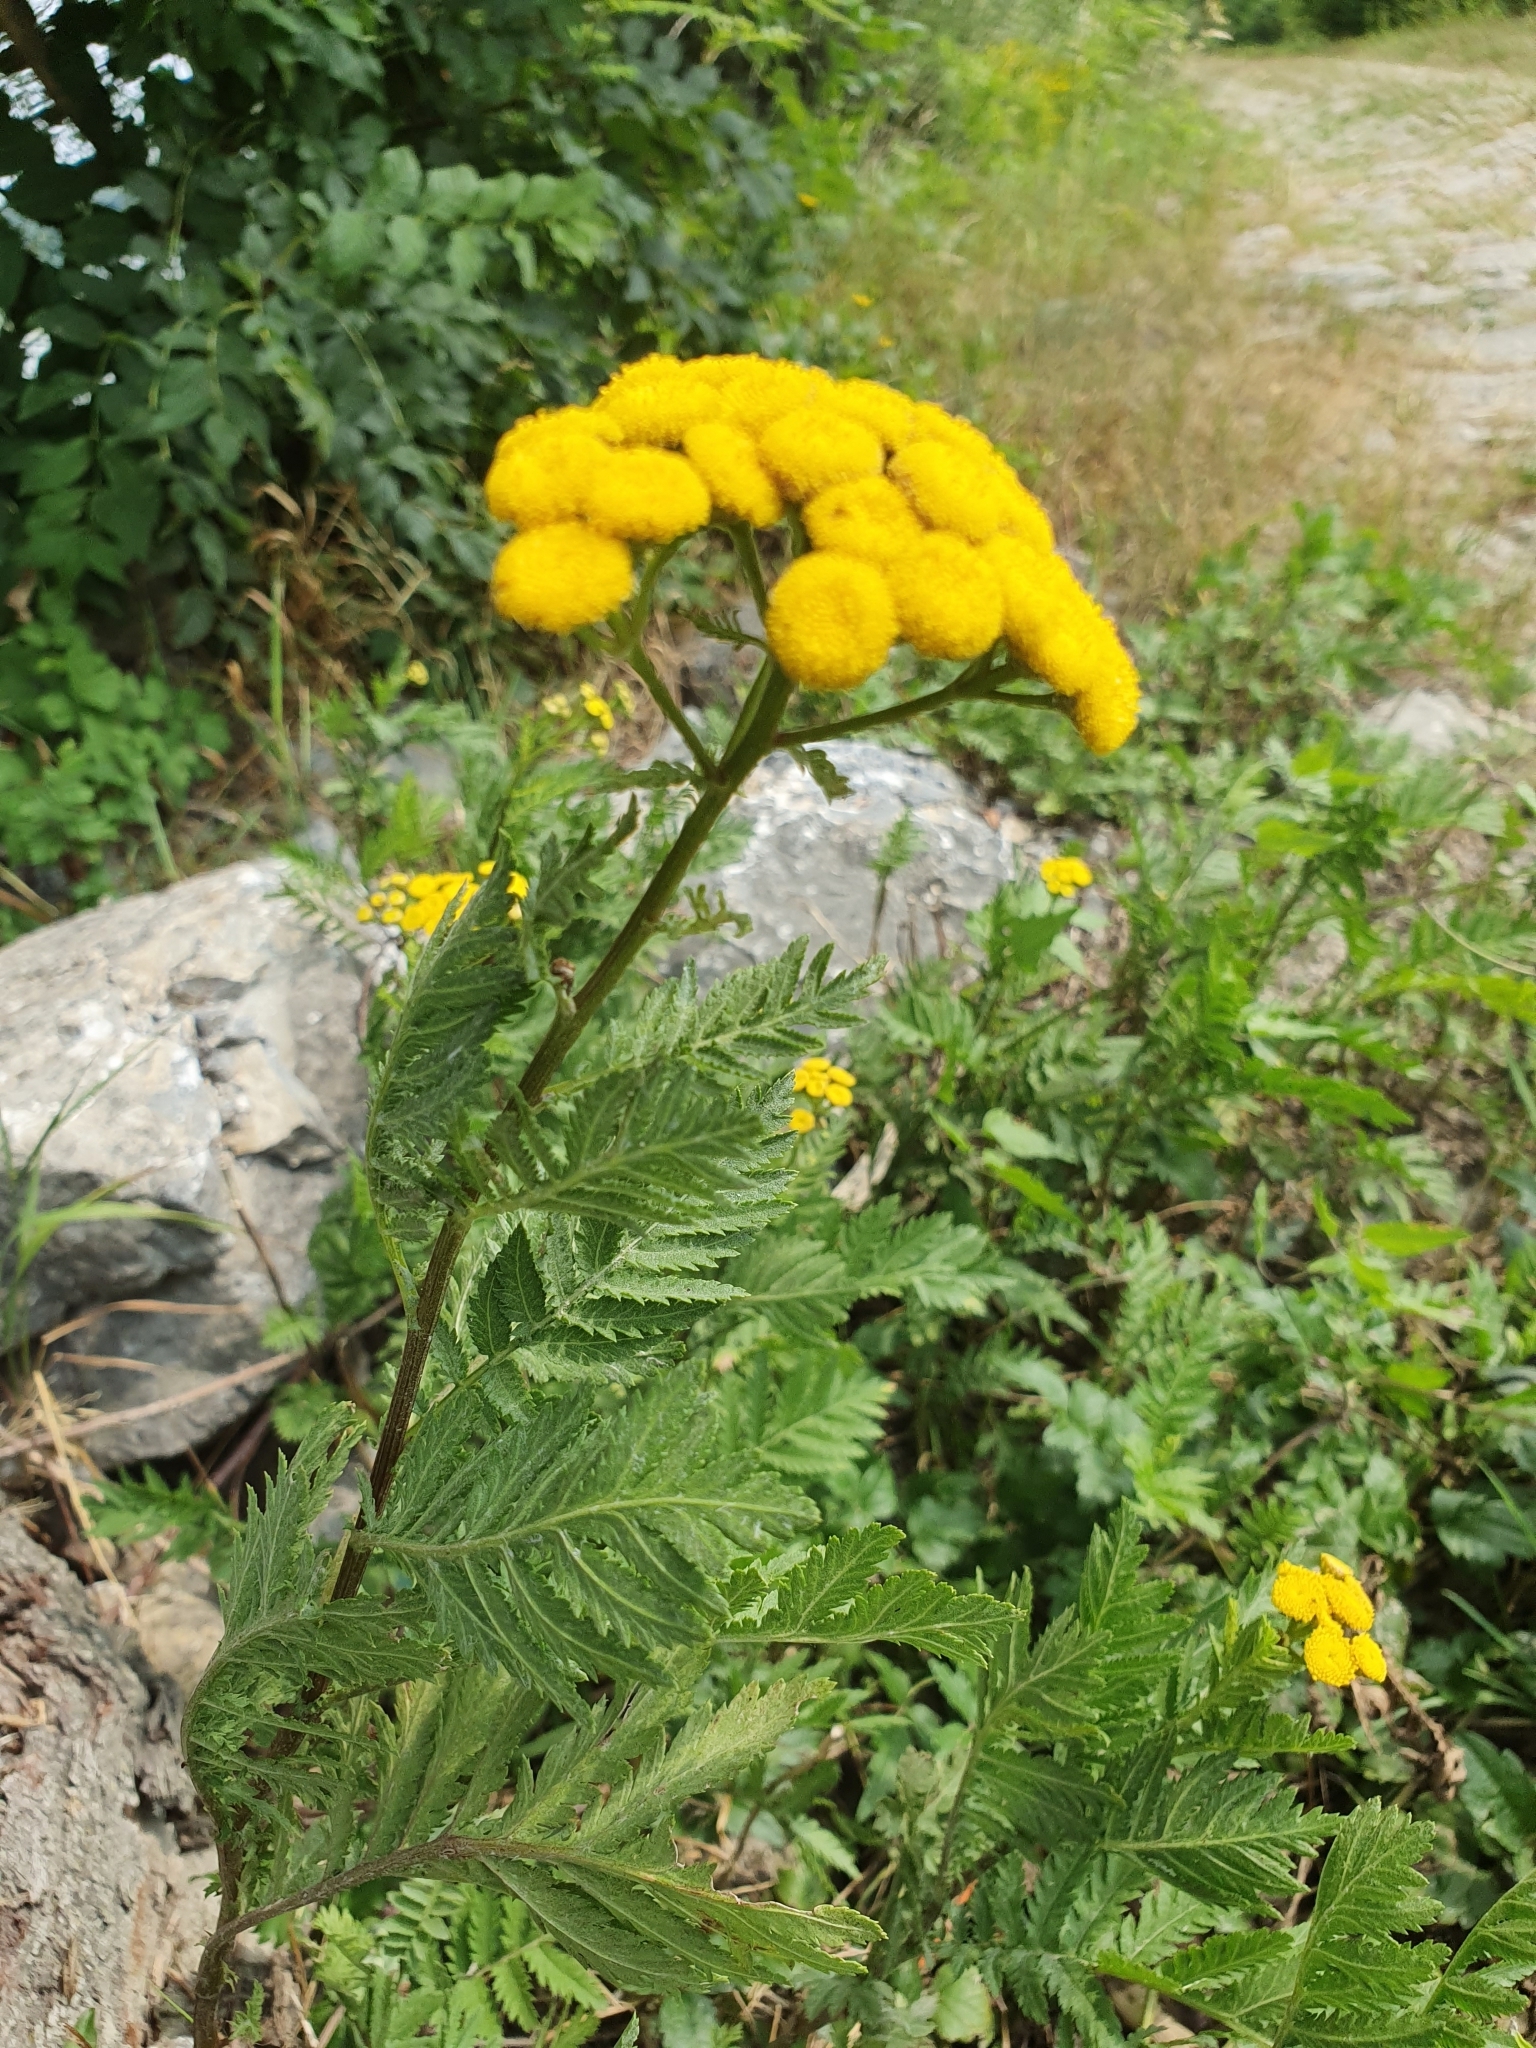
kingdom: Plantae
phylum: Tracheophyta
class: Magnoliopsida
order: Asterales
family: Asteraceae
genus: Tanacetum
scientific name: Tanacetum vulgare
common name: Common tansy
